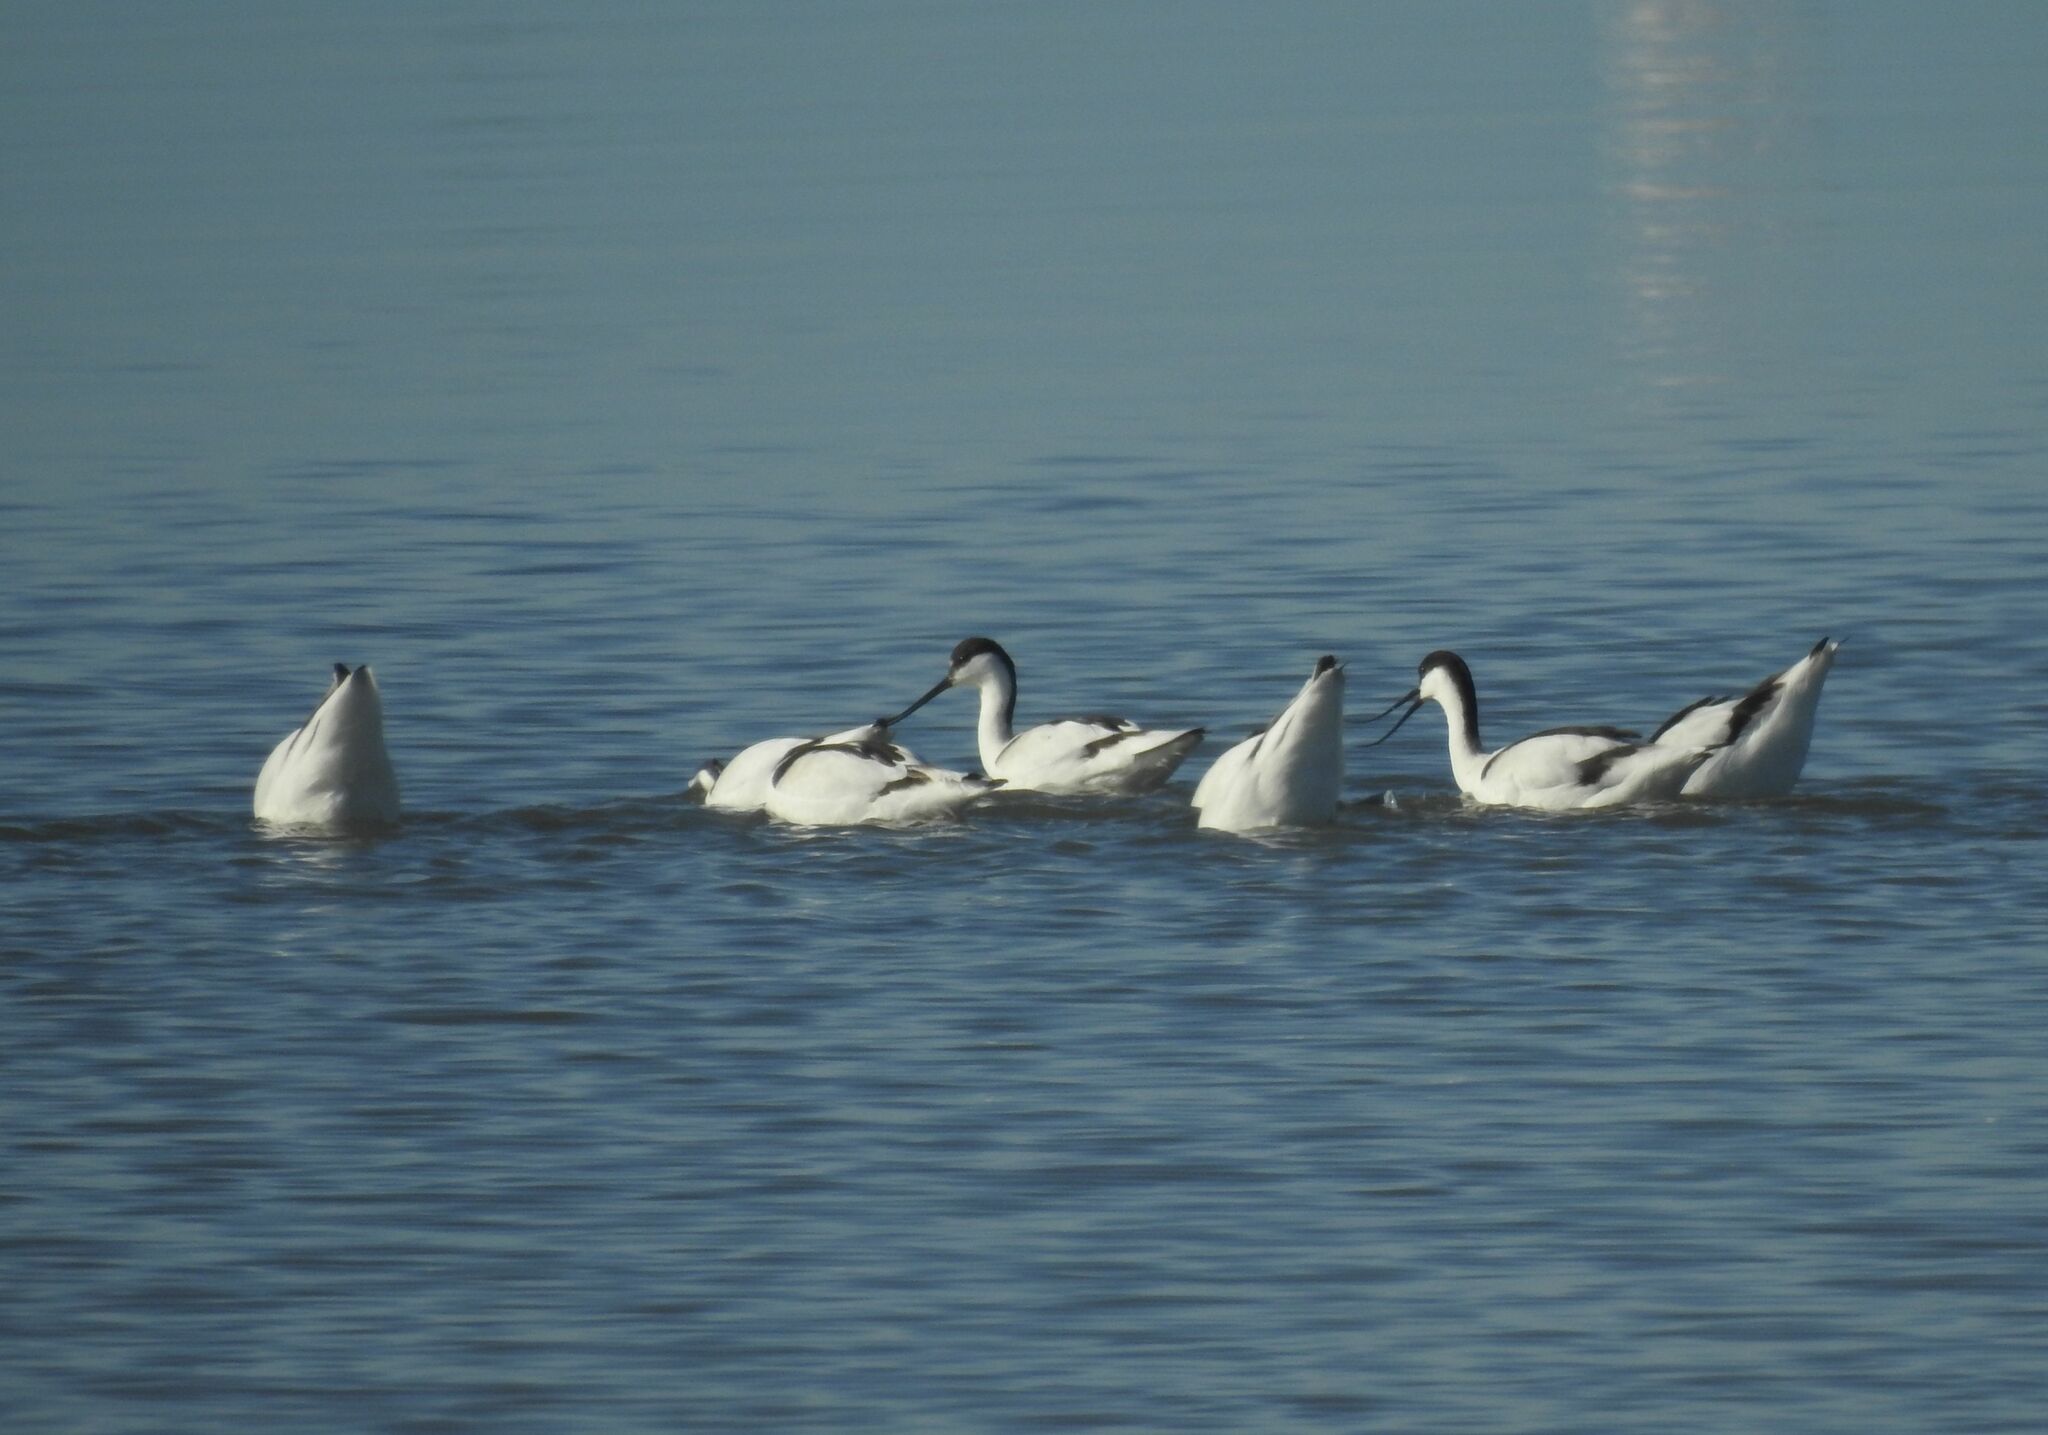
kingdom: Animalia
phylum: Chordata
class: Aves
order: Charadriiformes
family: Recurvirostridae
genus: Recurvirostra
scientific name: Recurvirostra avosetta
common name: Pied avocet
